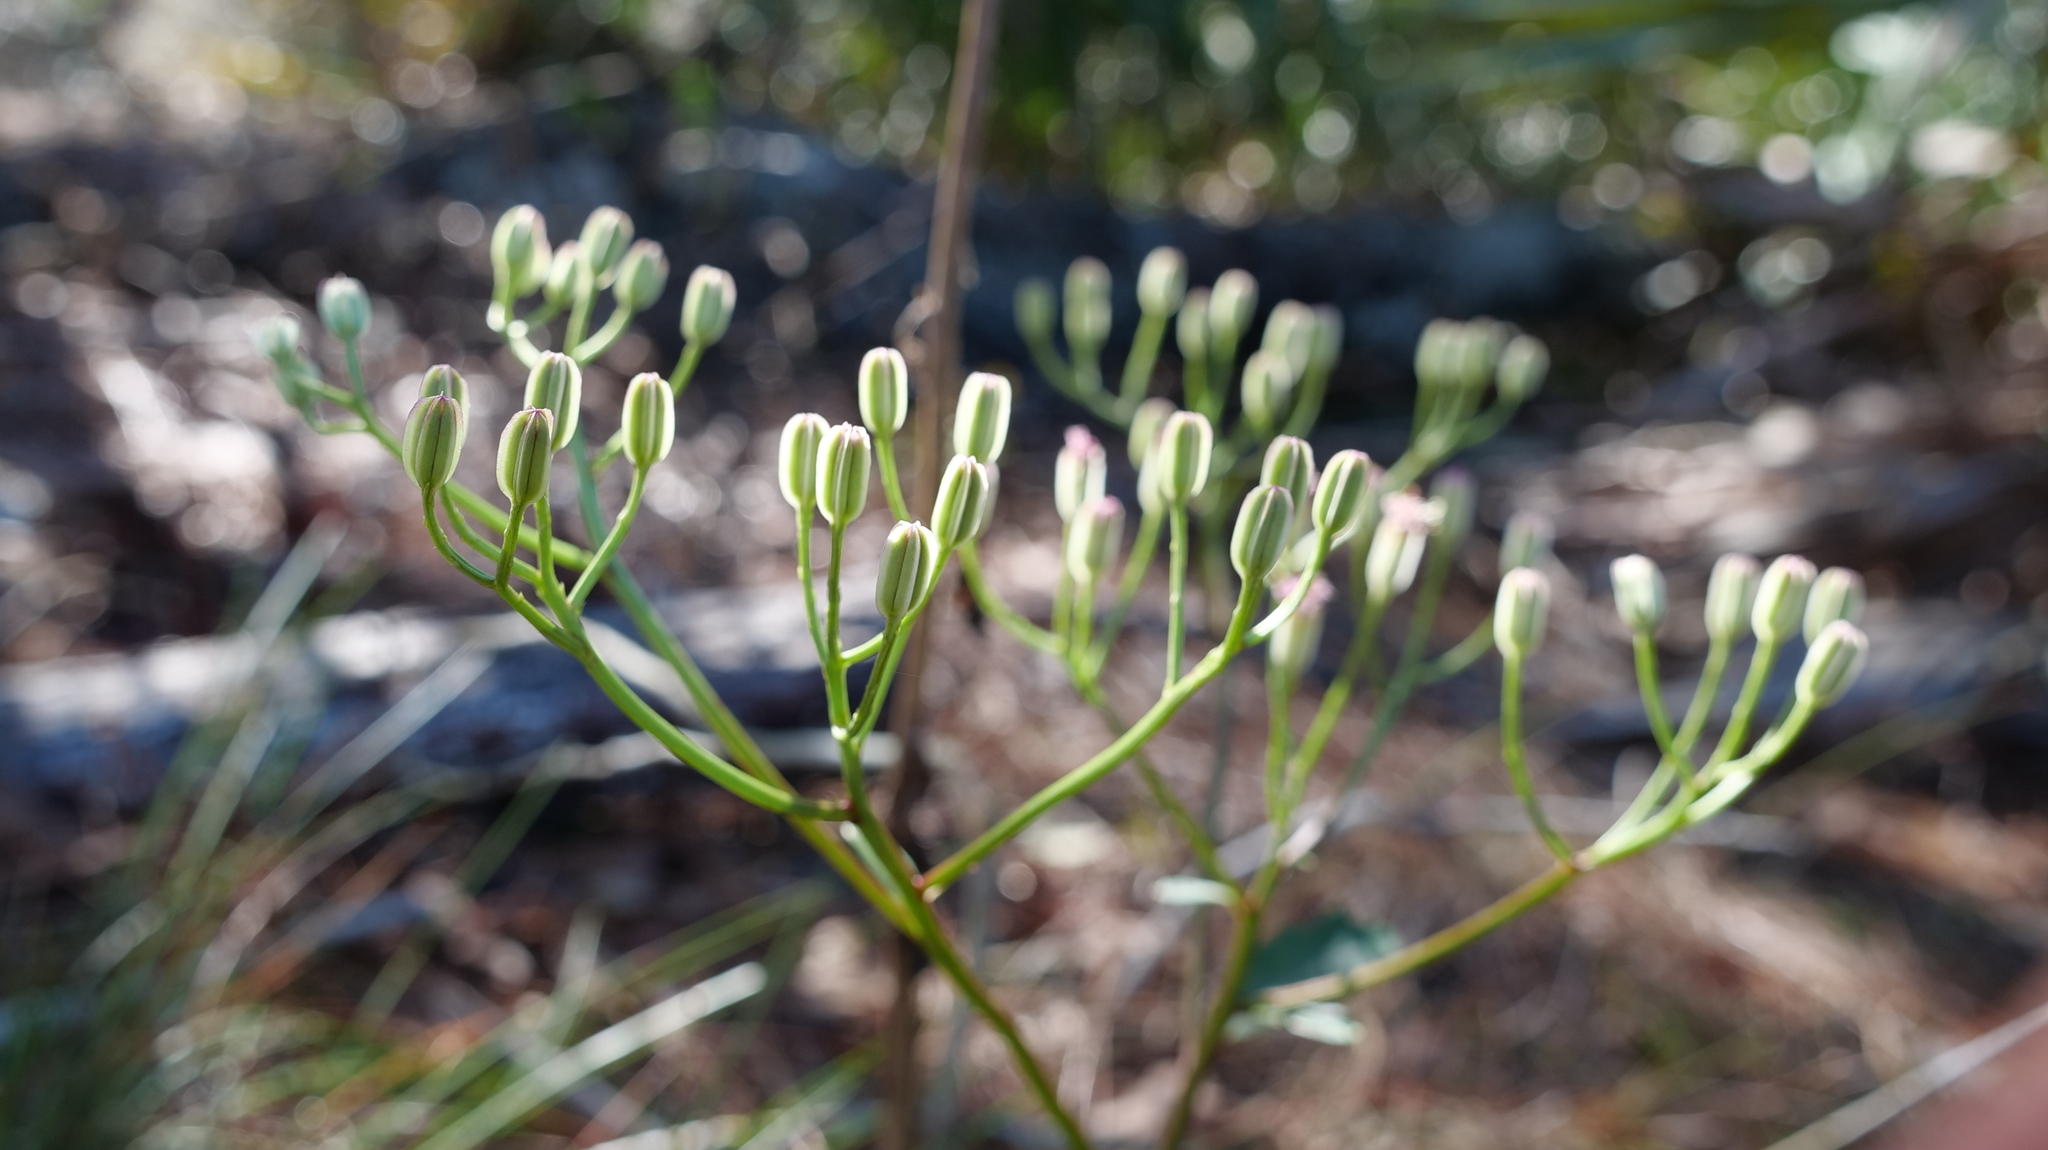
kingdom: Plantae
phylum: Tracheophyta
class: Magnoliopsida
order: Asterales
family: Asteraceae
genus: Arnoglossum
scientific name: Arnoglossum floridanum
